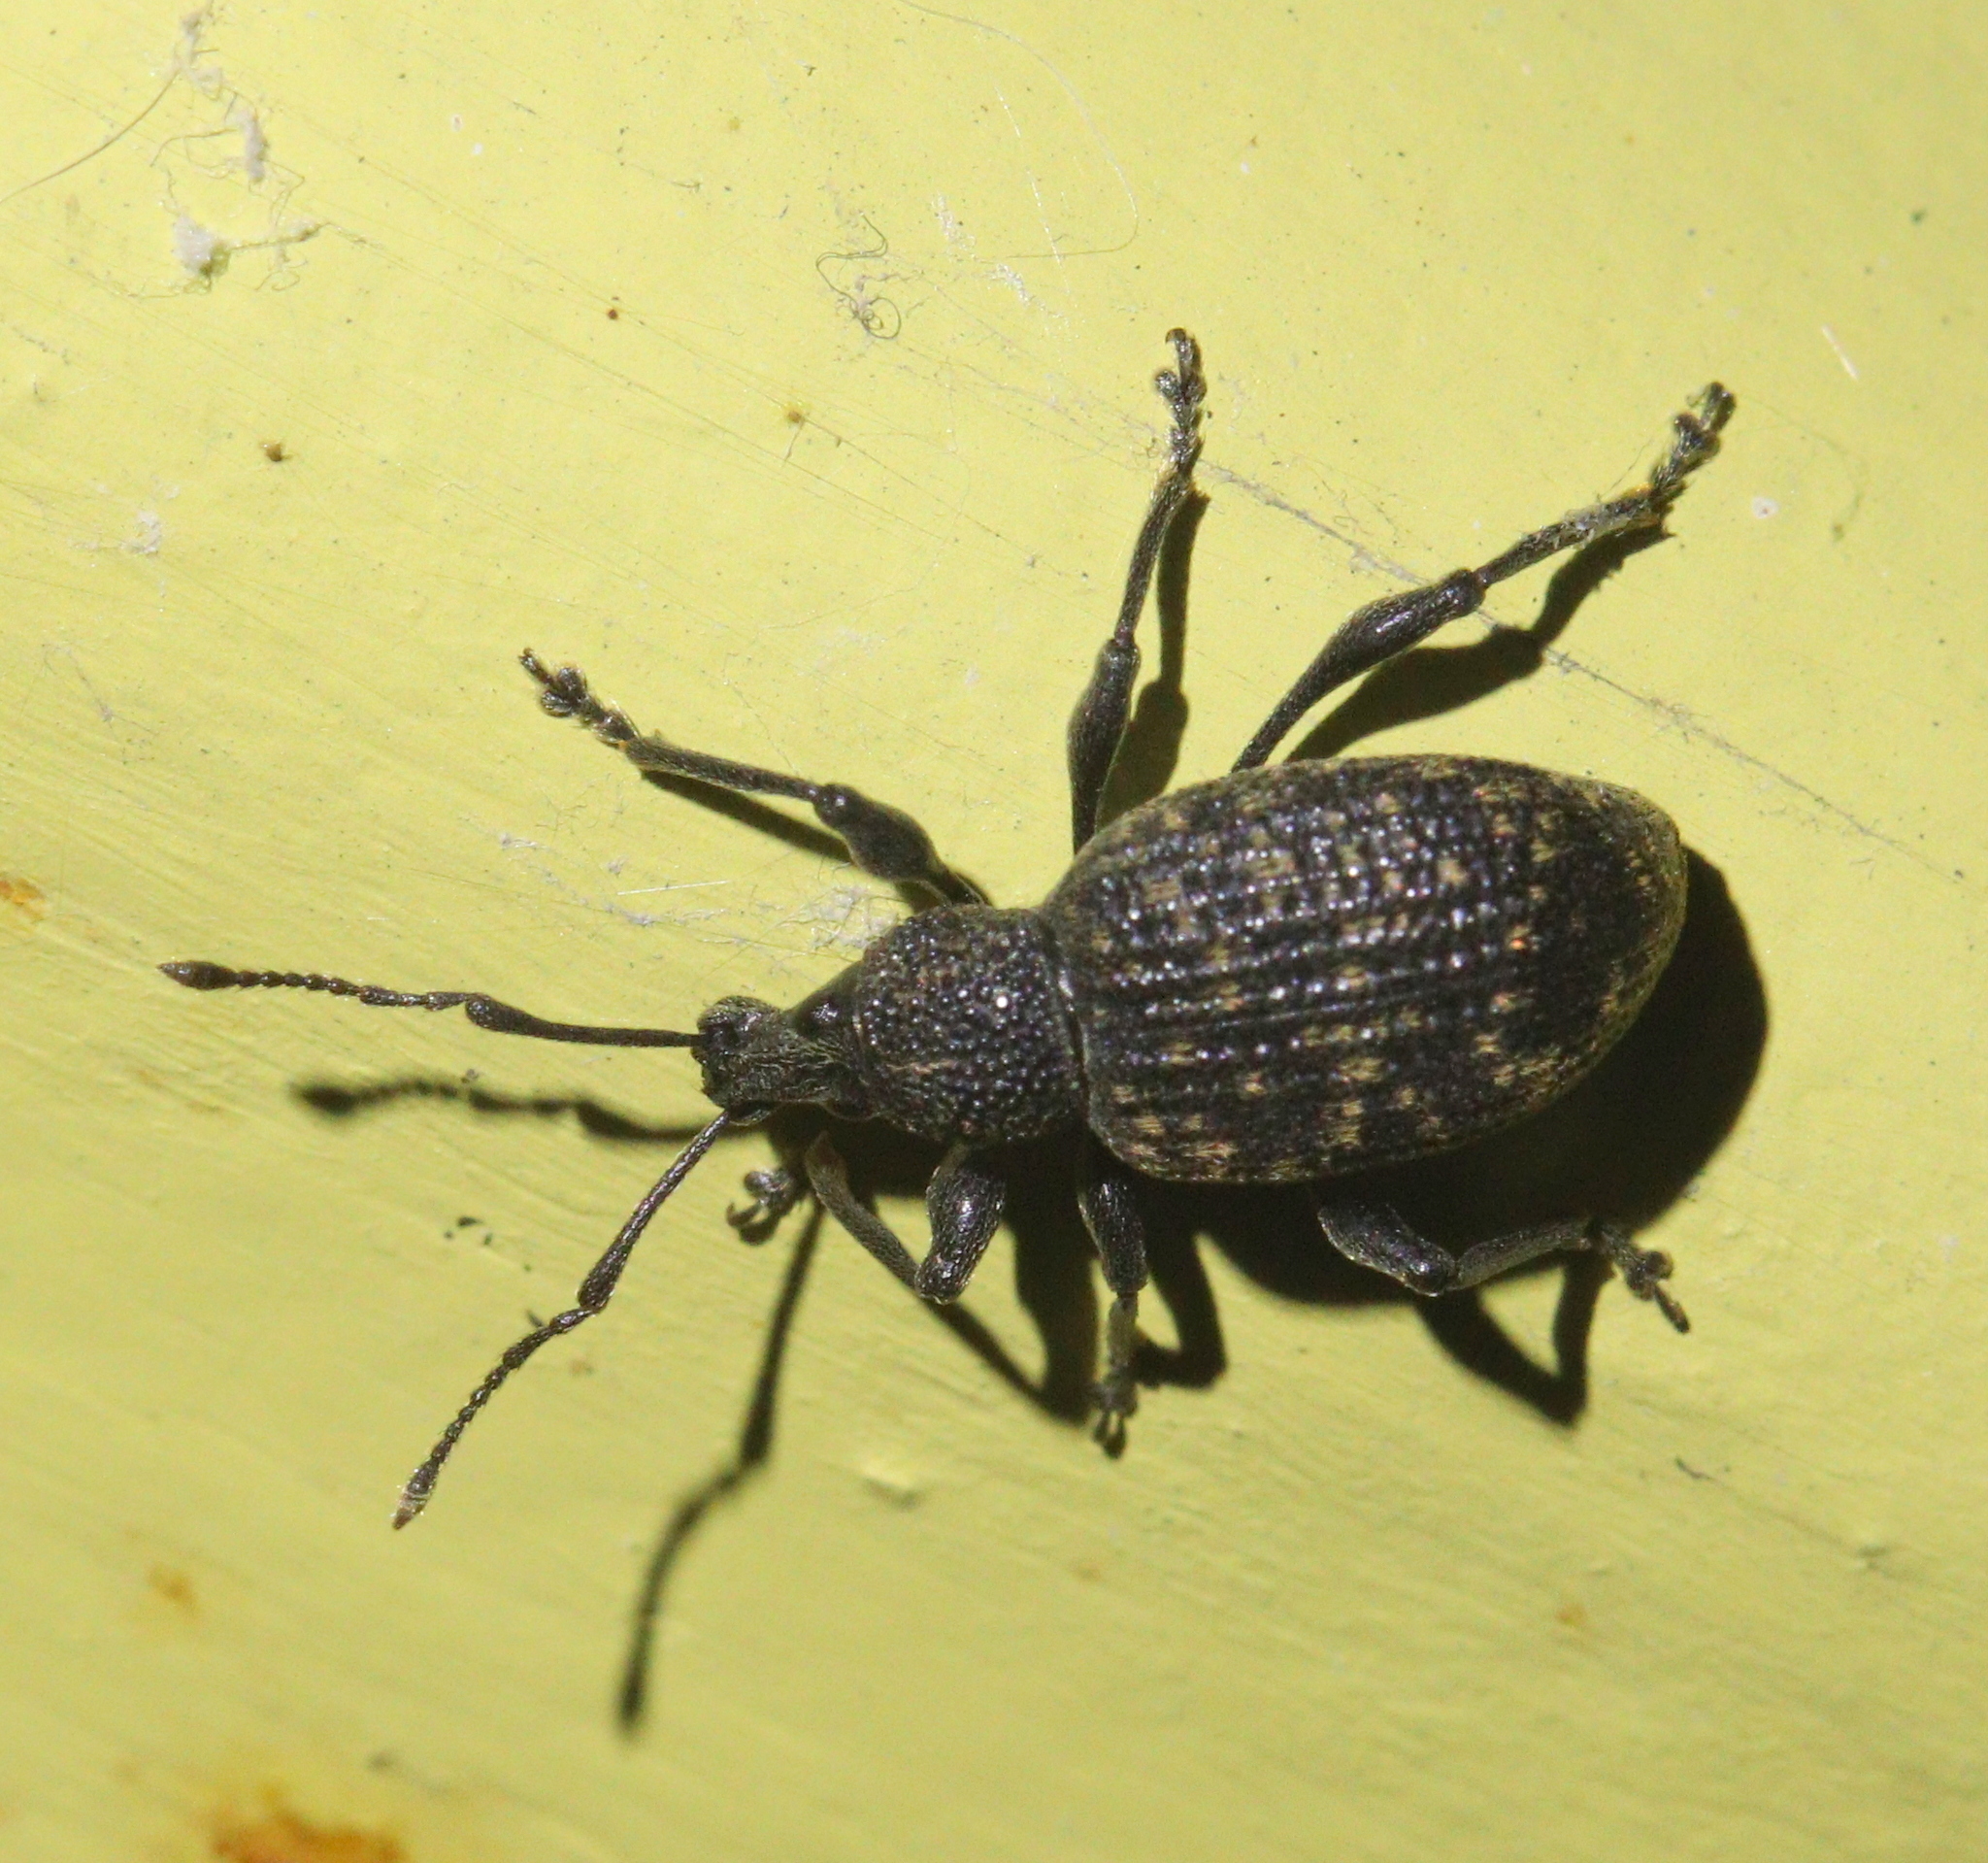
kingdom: Animalia
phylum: Arthropoda
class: Insecta
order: Coleoptera
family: Curculionidae
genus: Otiorhynchus
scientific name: Otiorhynchus sulcatus
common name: Black vine weevil
